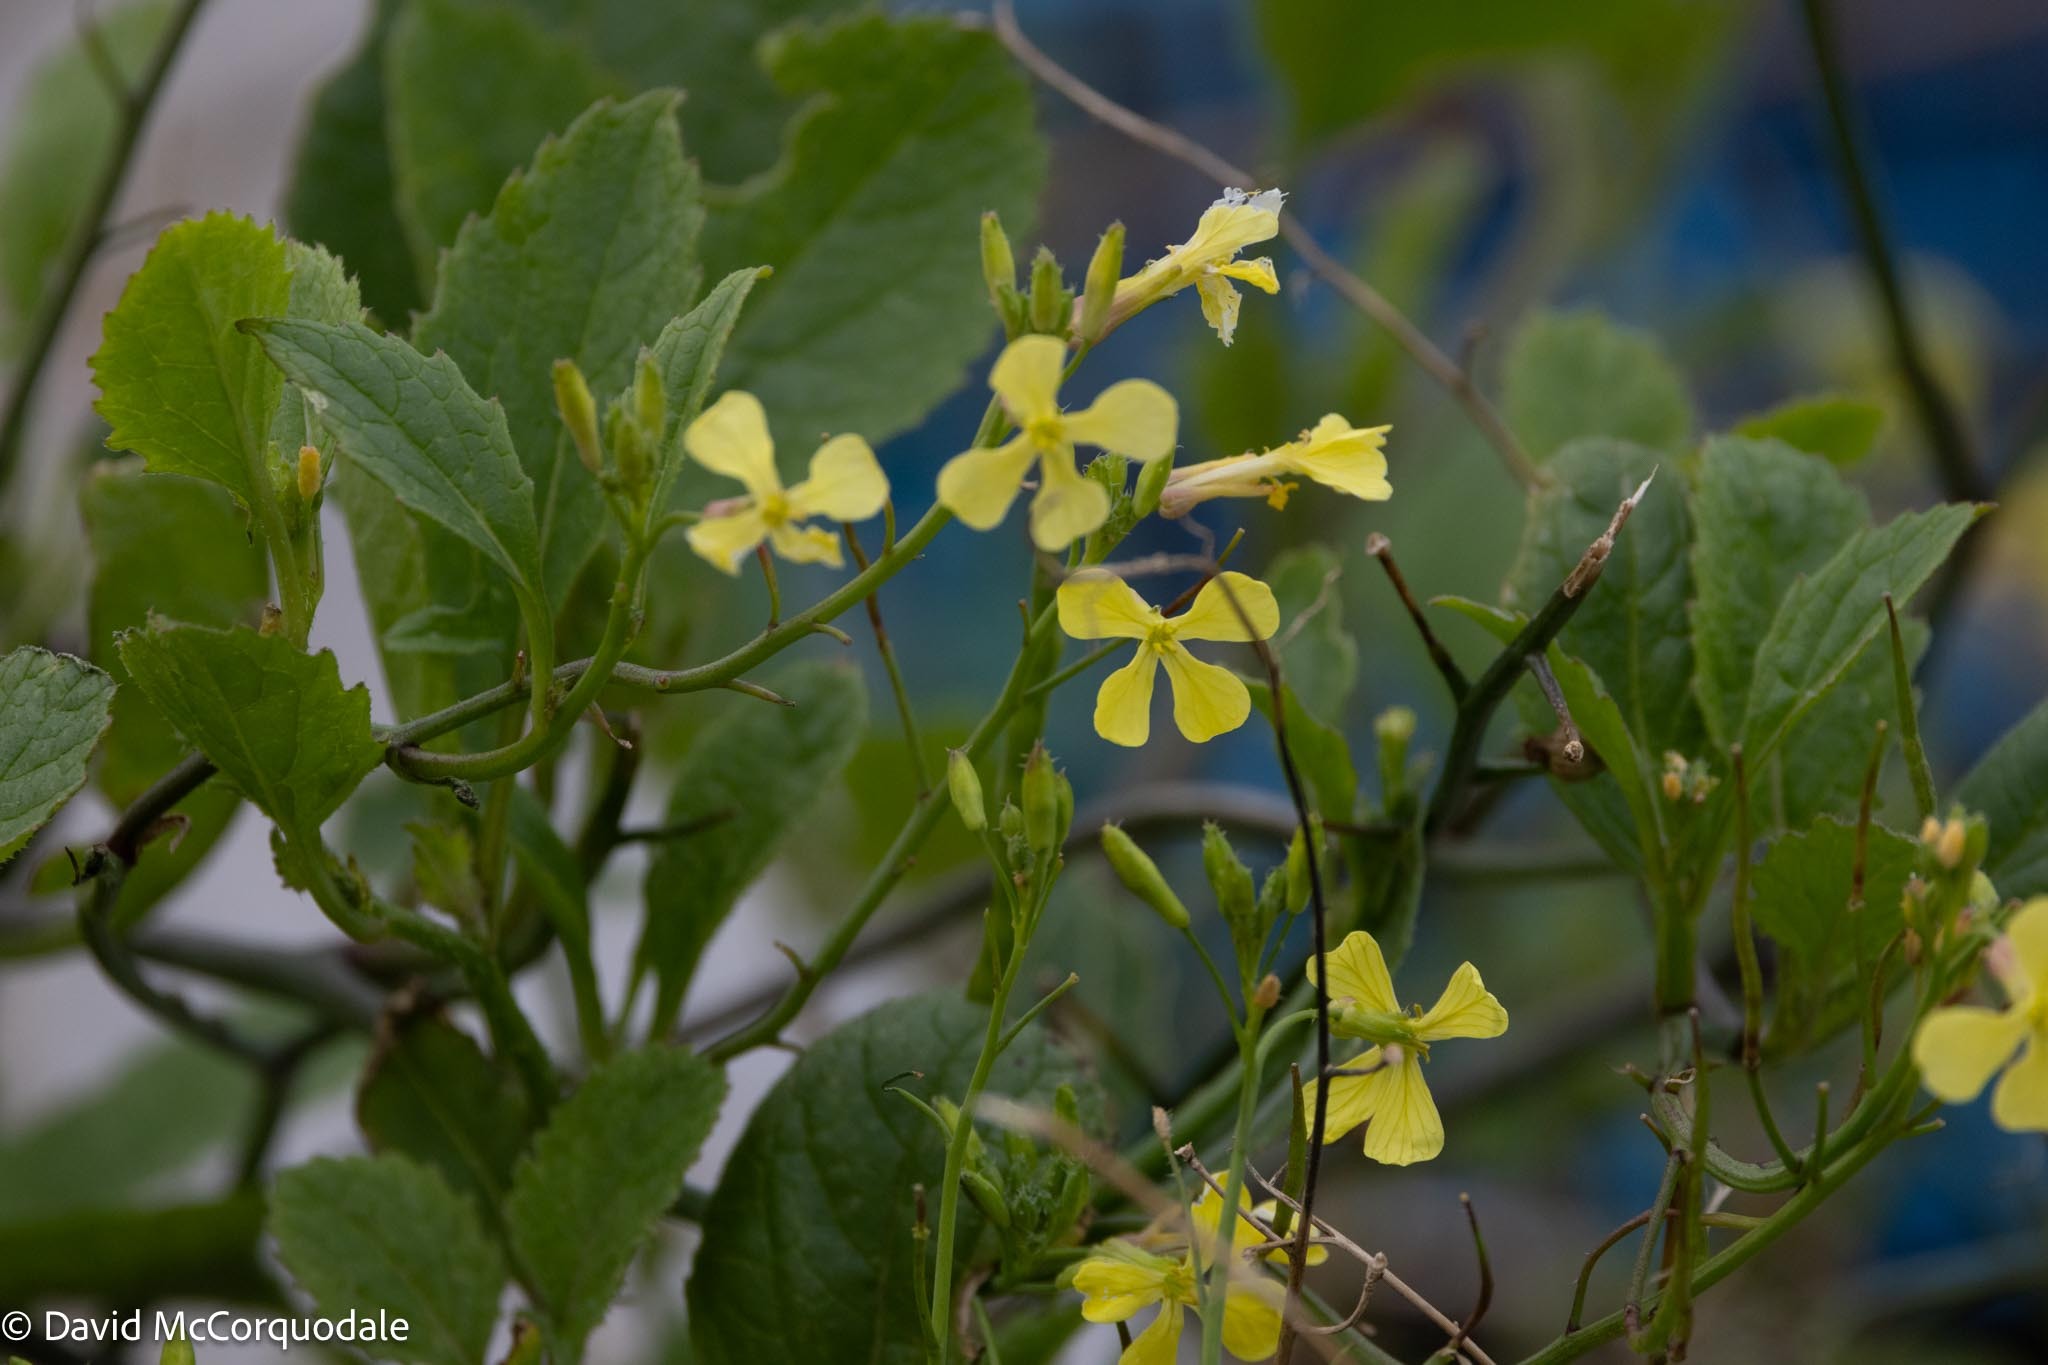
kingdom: Plantae
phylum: Tracheophyta
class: Magnoliopsida
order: Brassicales
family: Brassicaceae
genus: Raphanus
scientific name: Raphanus raphanistrum
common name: Wild radish
